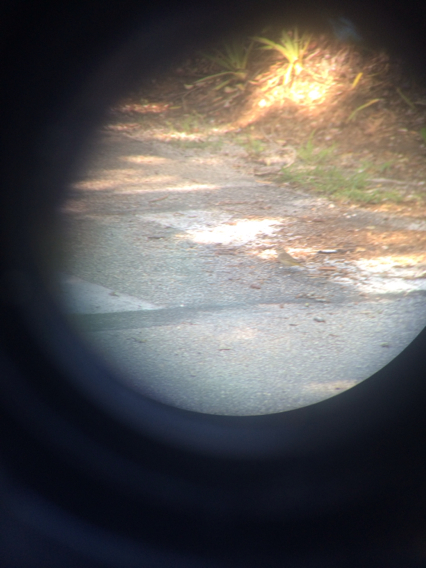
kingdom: Animalia
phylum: Chordata
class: Aves
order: Passeriformes
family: Parulidae
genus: Setophaga
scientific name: Setophaga palmarum
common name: Palm warbler
